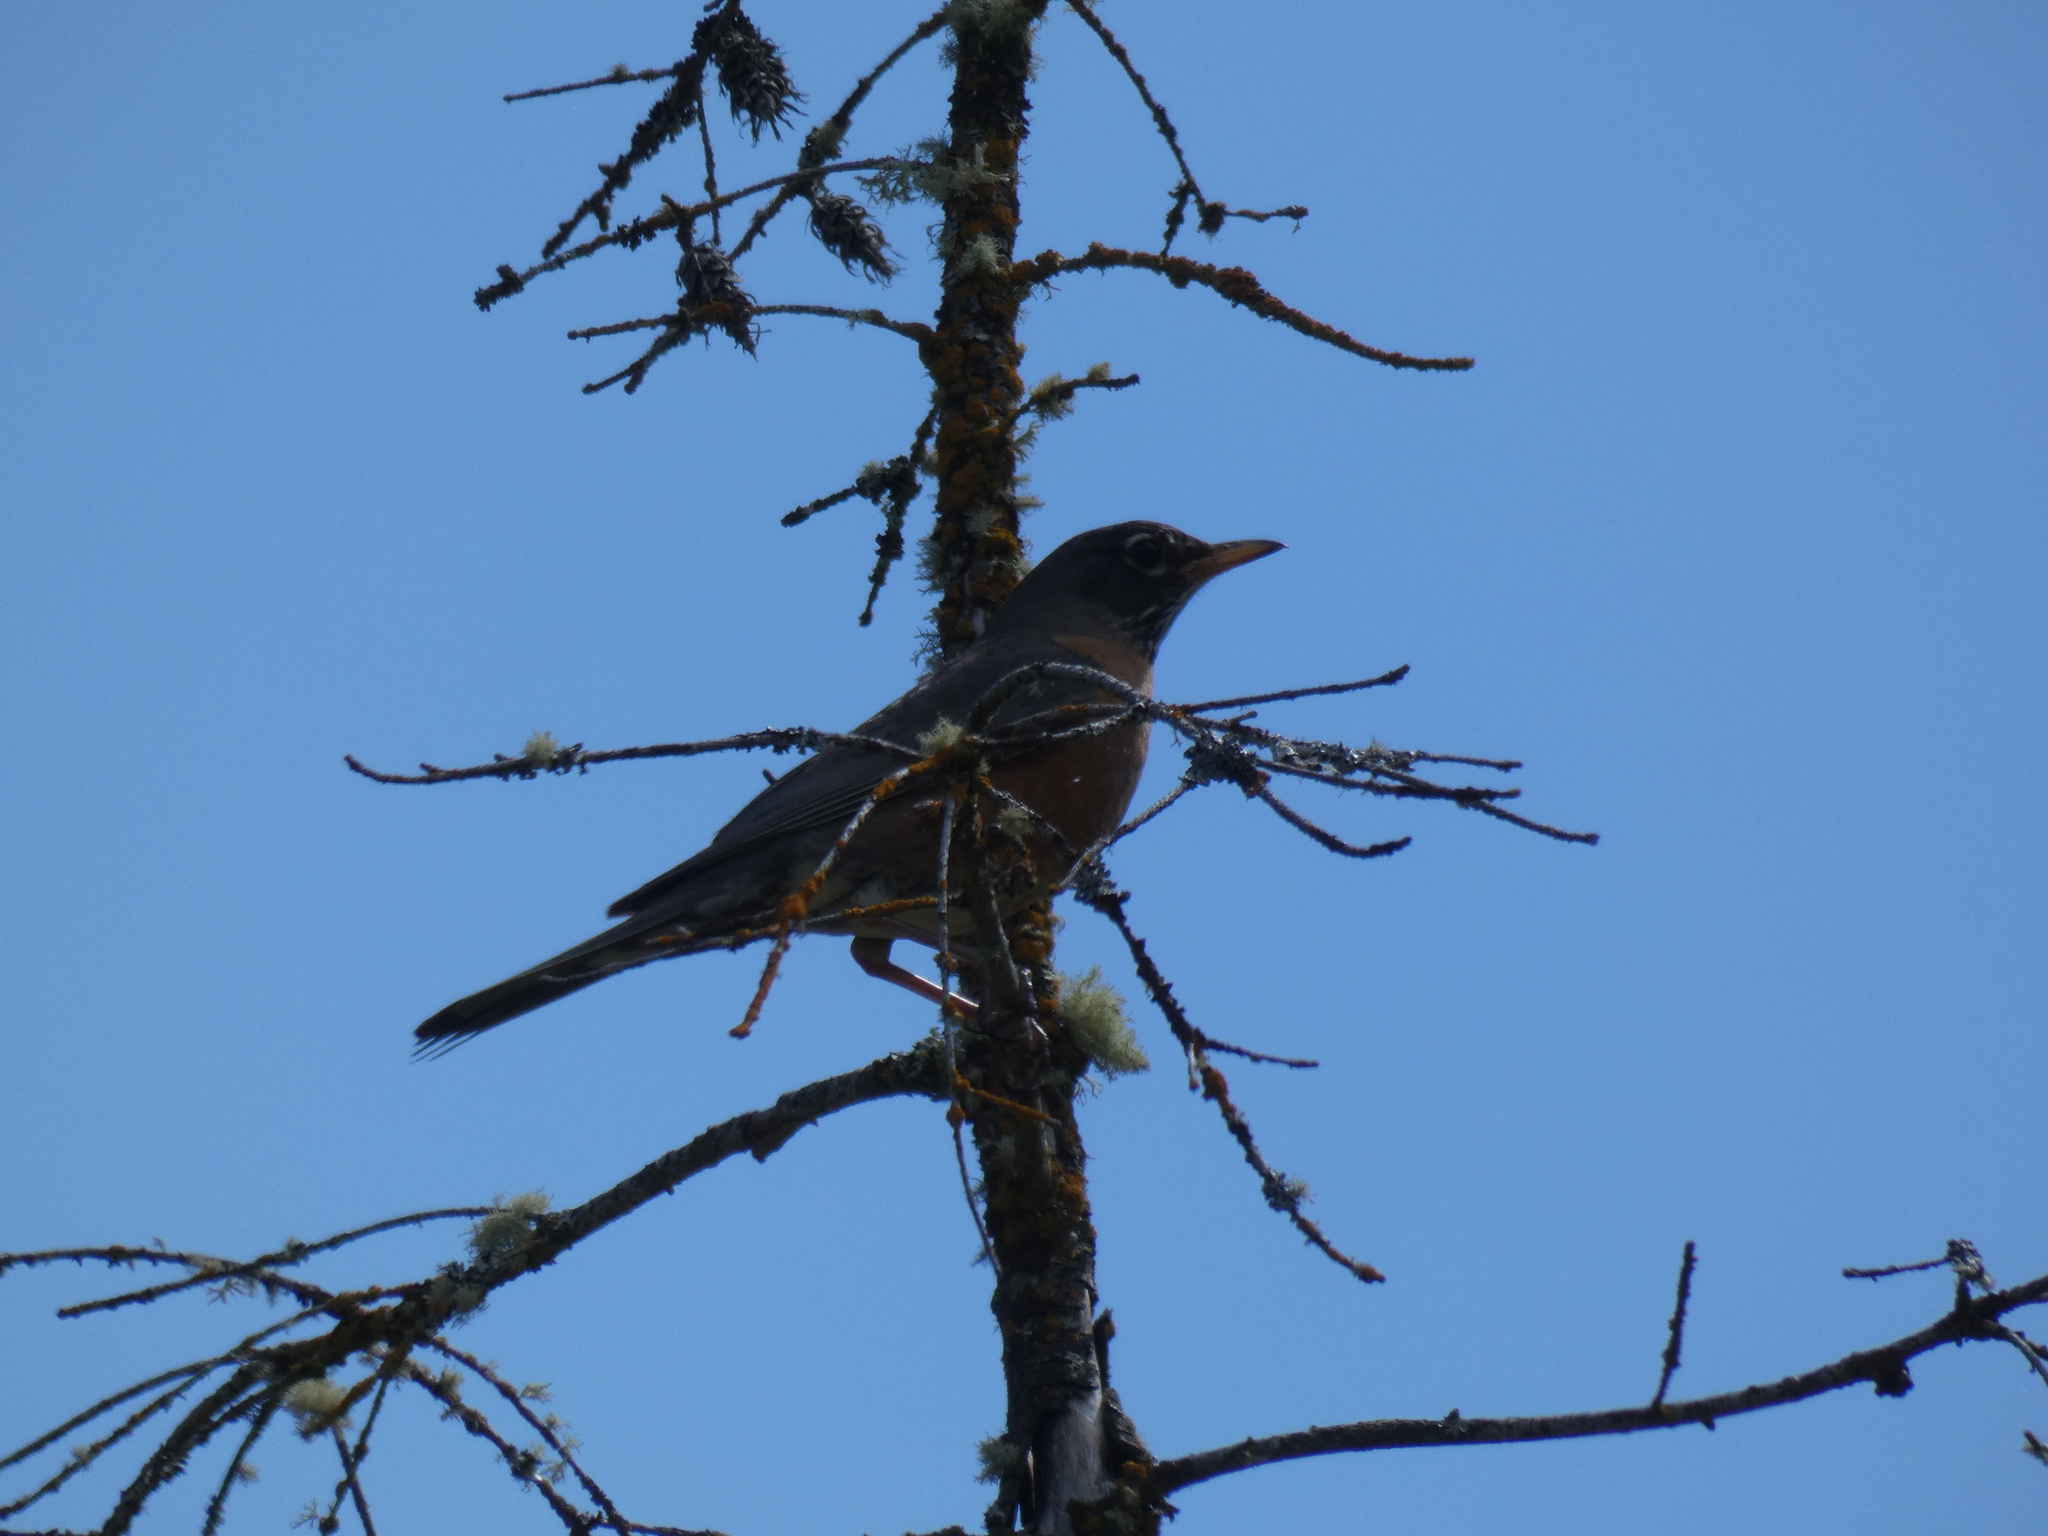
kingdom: Animalia
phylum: Chordata
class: Aves
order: Passeriformes
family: Turdidae
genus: Turdus
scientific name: Turdus migratorius
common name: American robin
